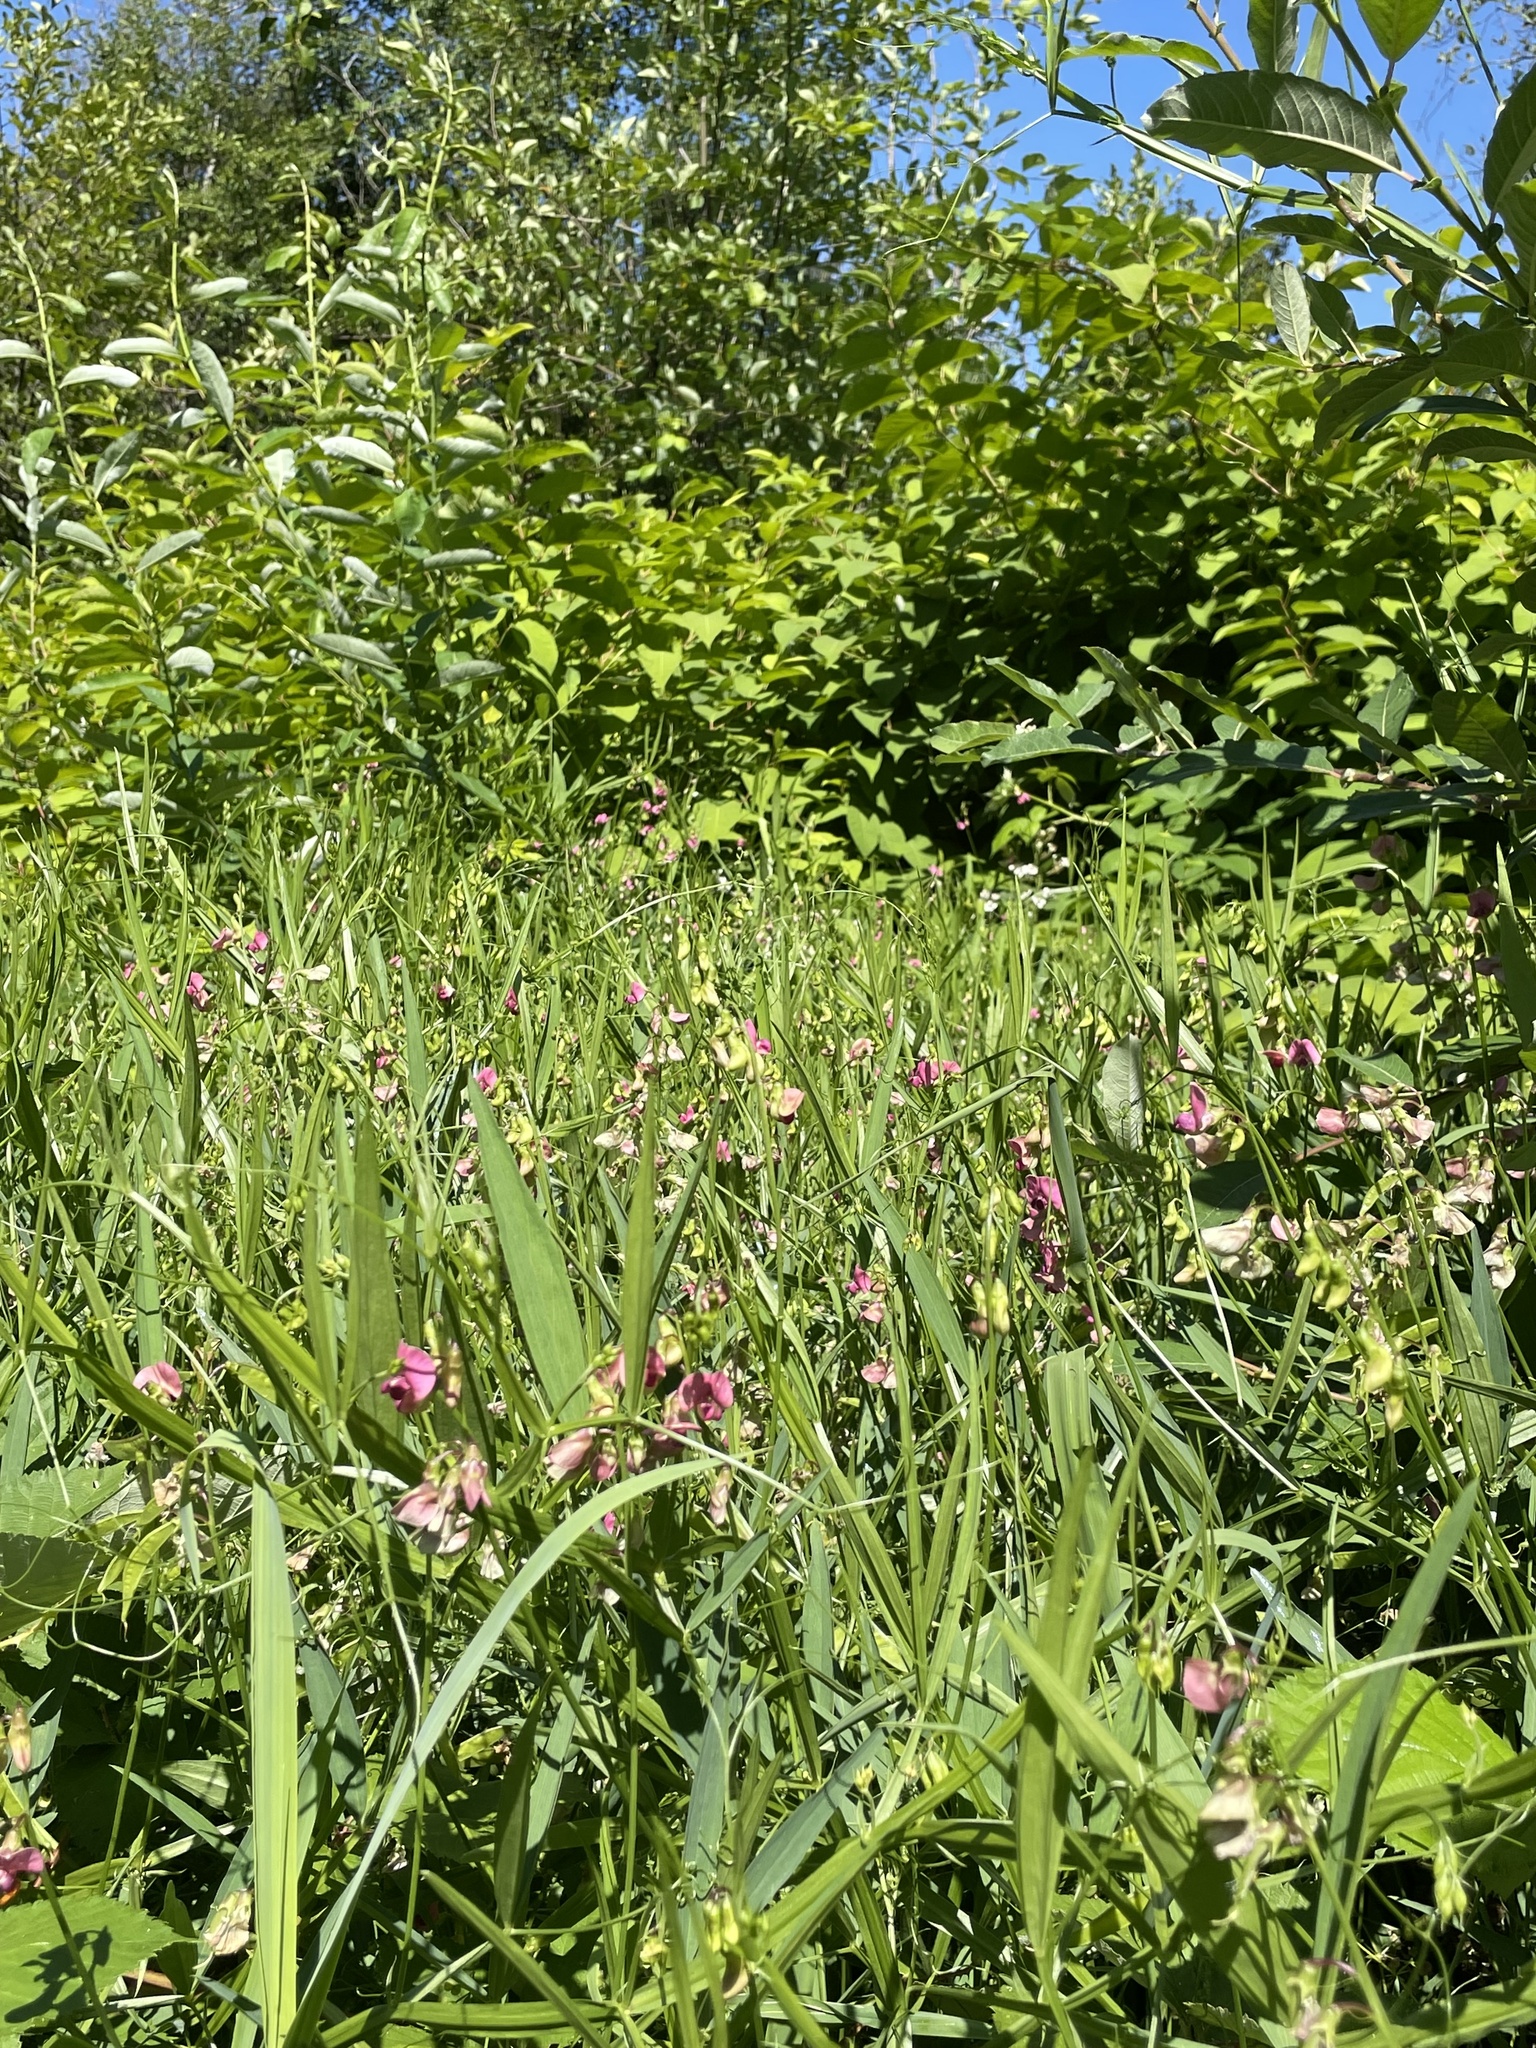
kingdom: Plantae
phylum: Tracheophyta
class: Magnoliopsida
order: Fabales
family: Fabaceae
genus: Lathyrus
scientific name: Lathyrus sylvestris
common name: Flat pea
